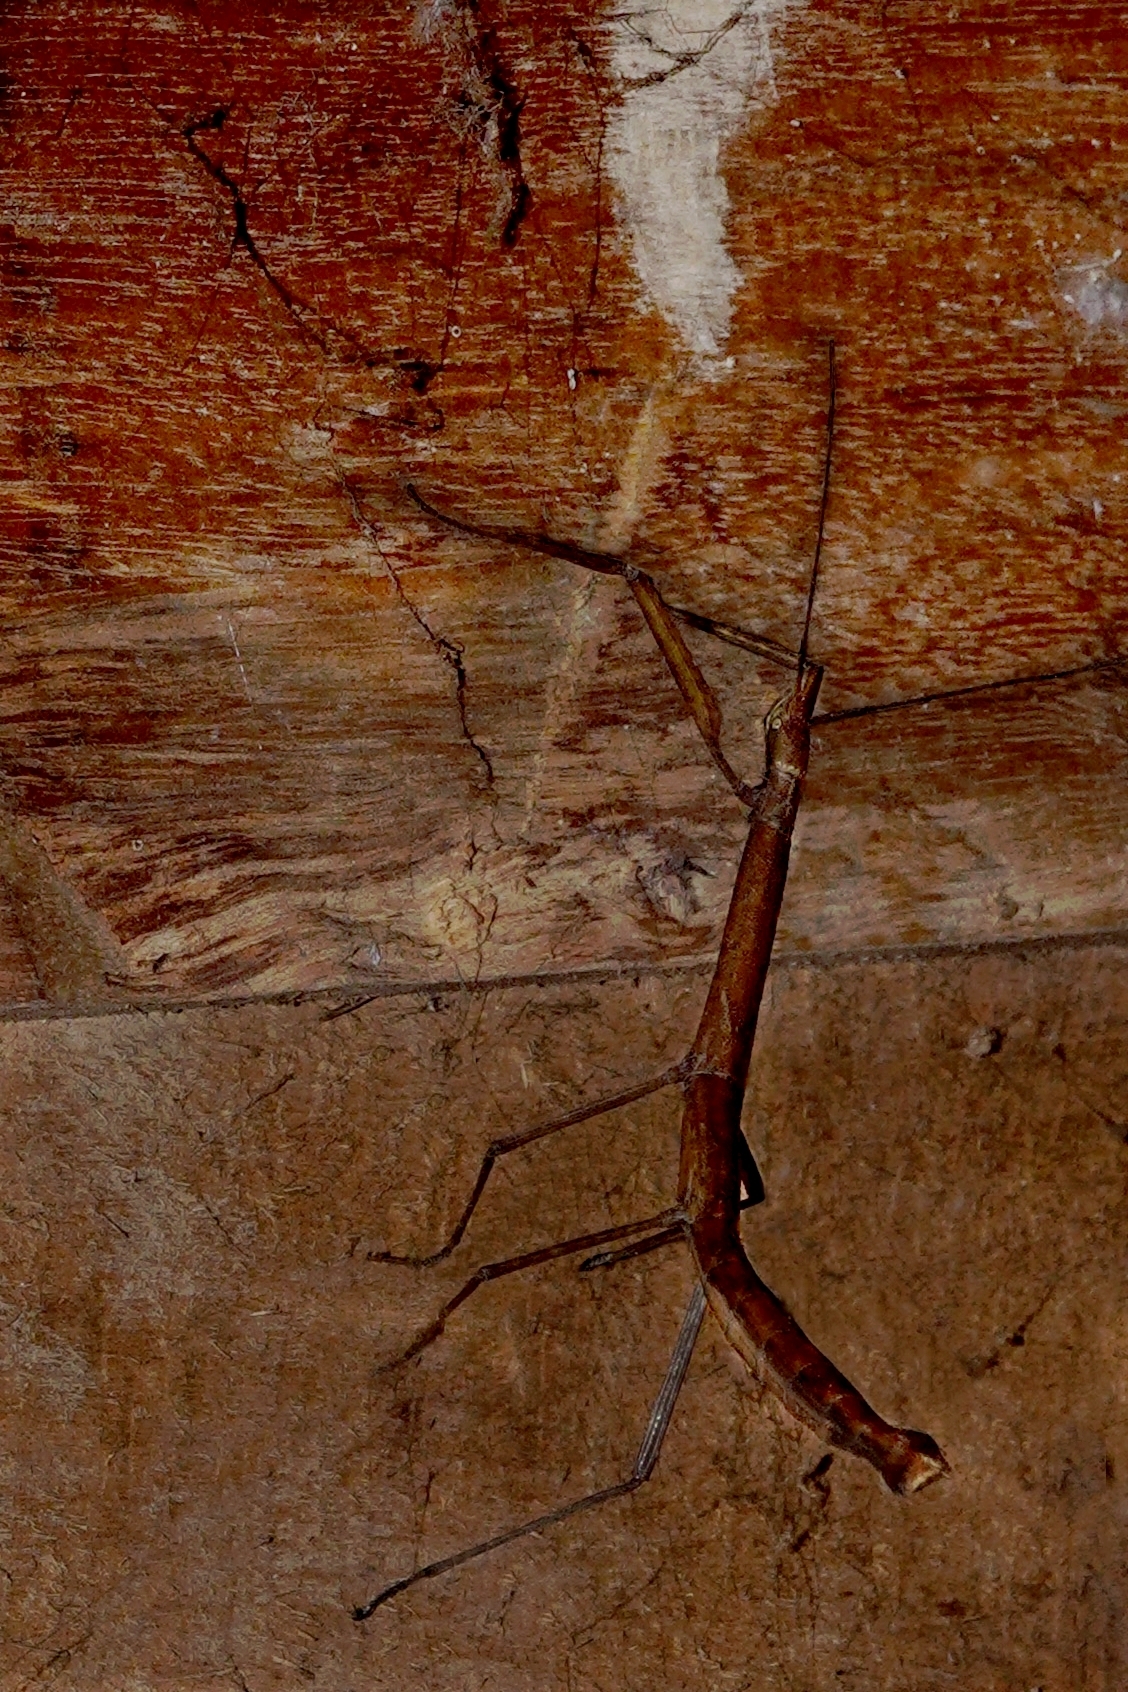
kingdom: Animalia
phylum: Arthropoda
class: Insecta
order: Phasmida
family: Lonchodidae
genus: Carausius
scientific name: Carausius morosus
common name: Indian stick insect
